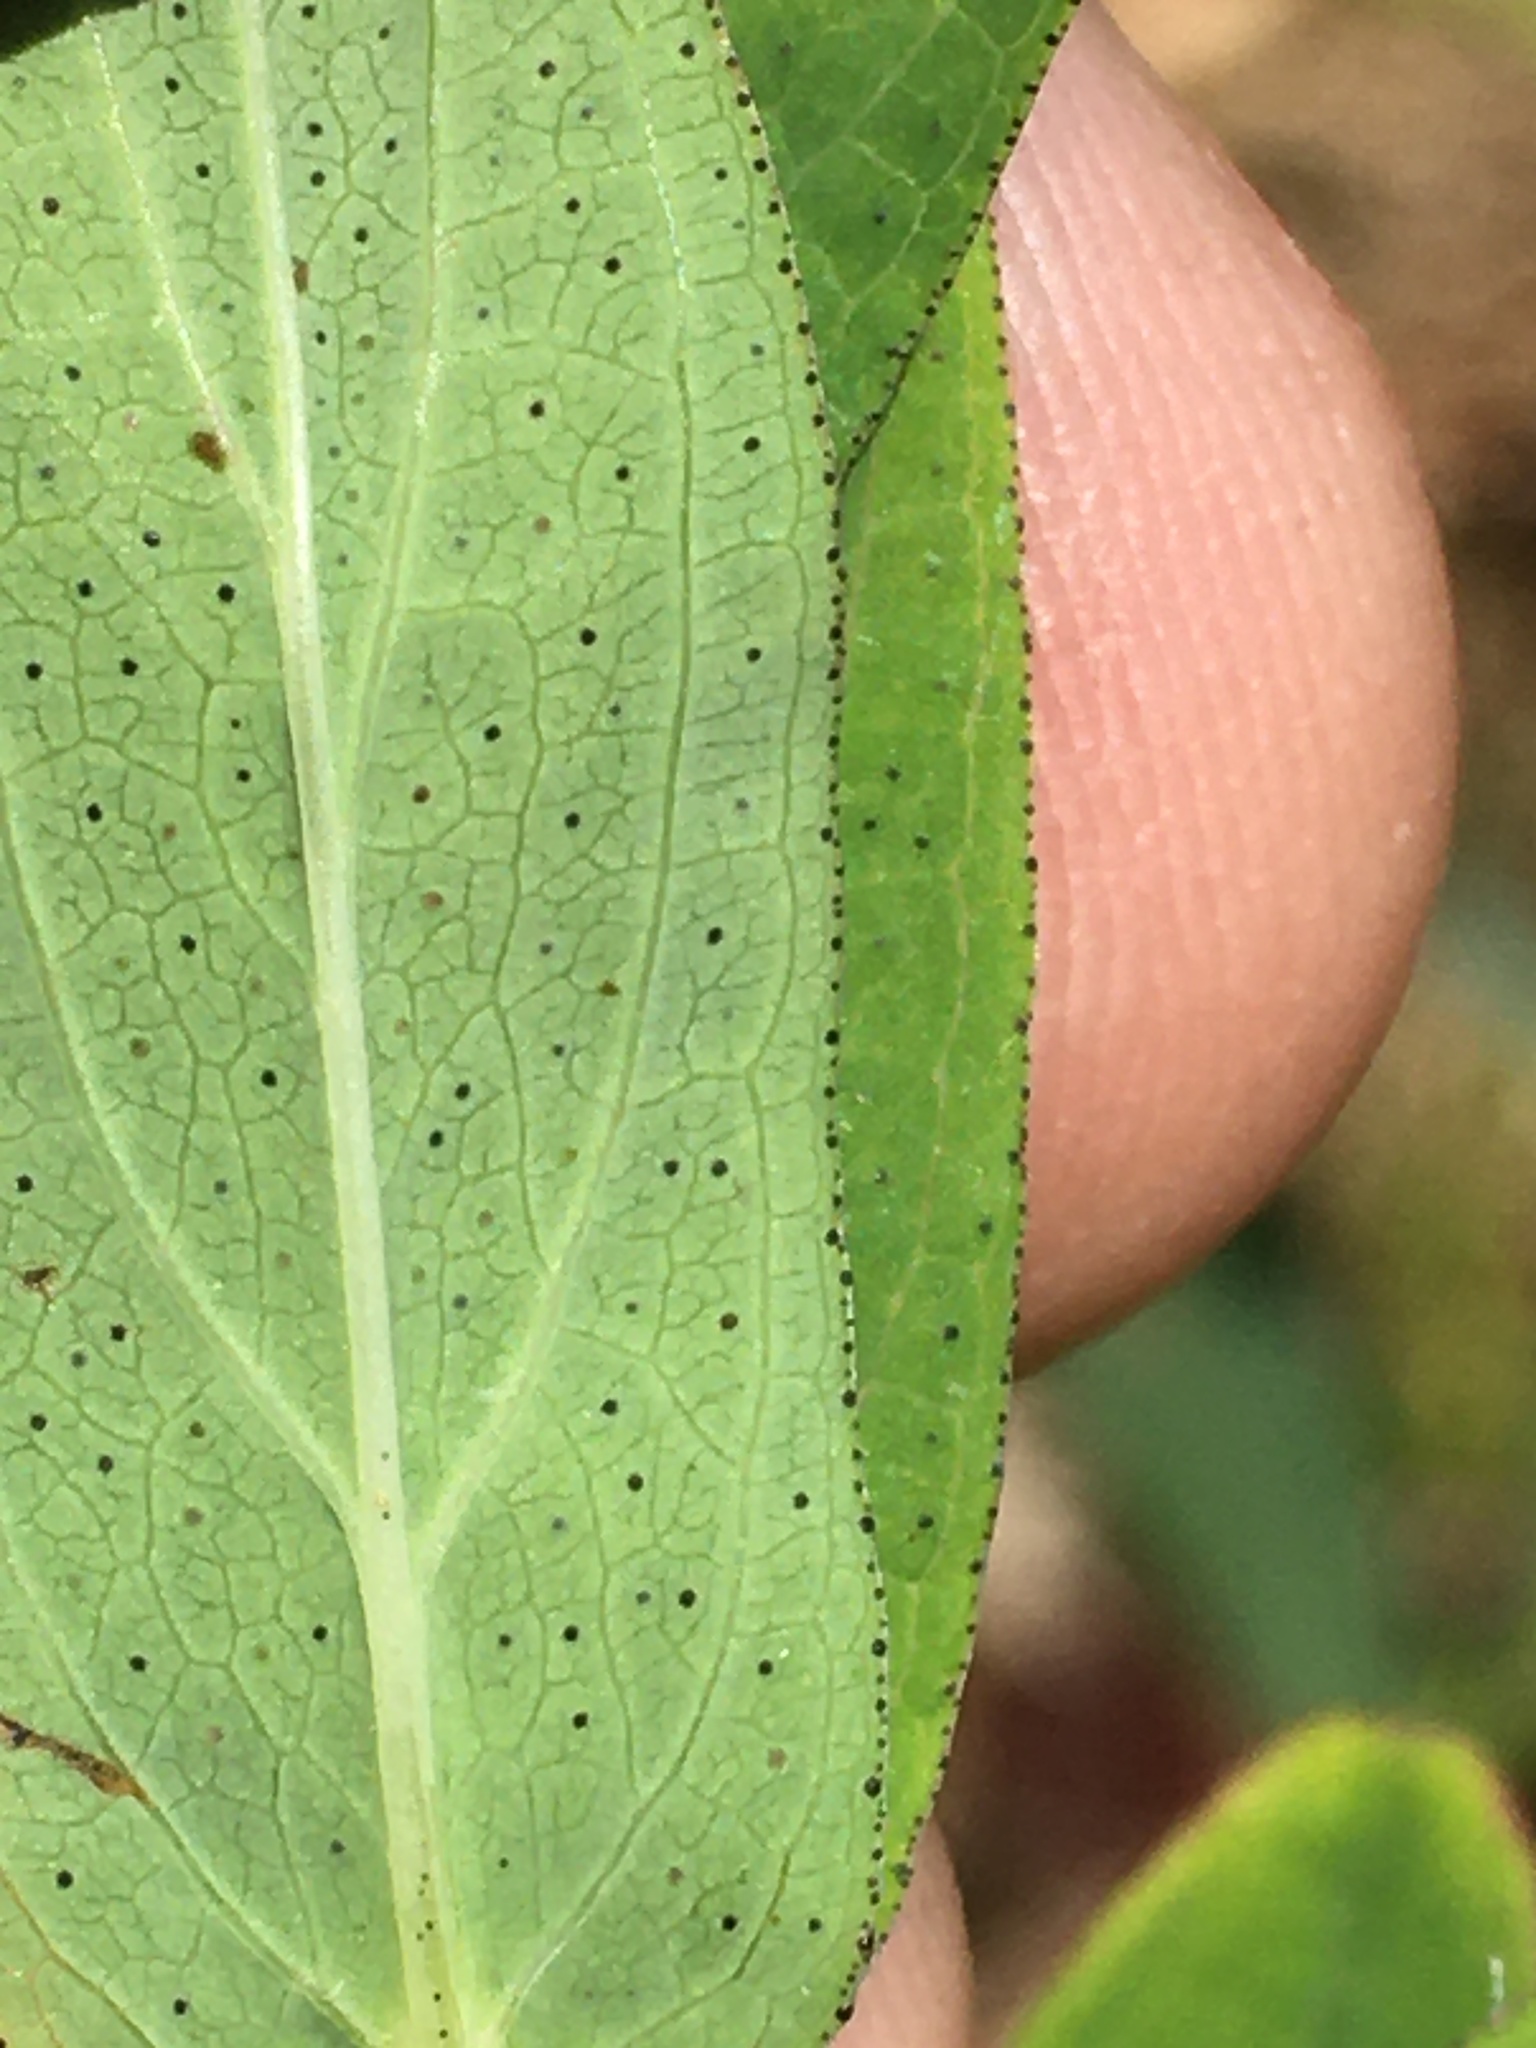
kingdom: Plantae
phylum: Tracheophyta
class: Magnoliopsida
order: Malpighiales
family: Hypericaceae
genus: Hypericum
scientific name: Hypericum punctatum
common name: Spotted st. john's-wort
